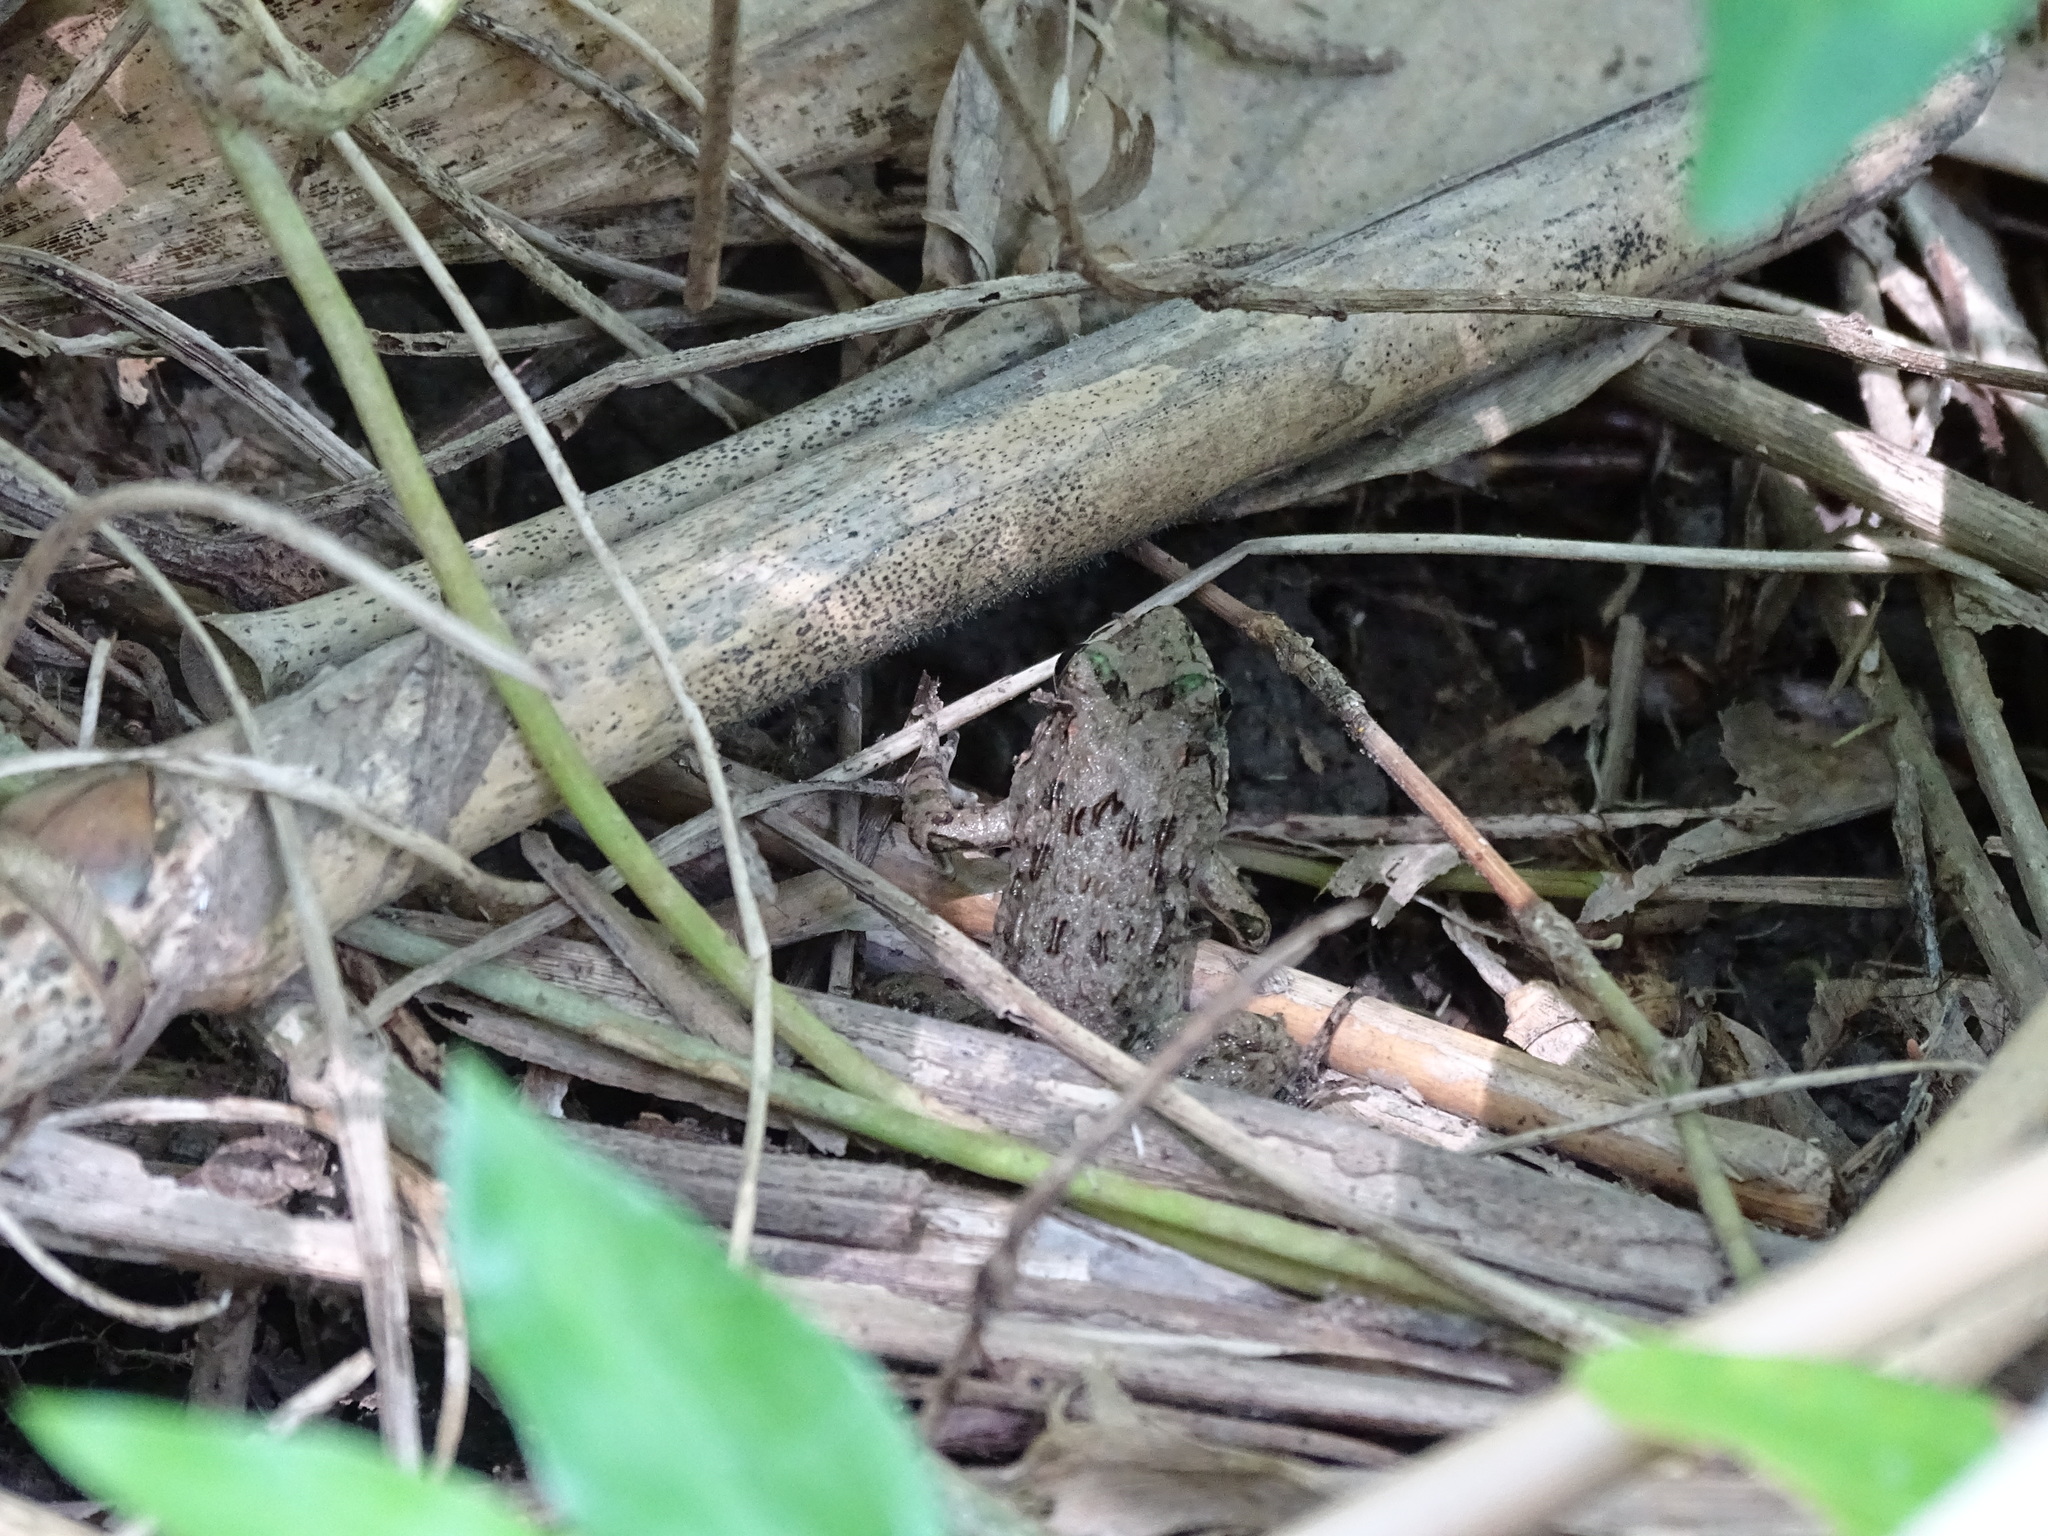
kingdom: Animalia
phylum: Chordata
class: Amphibia
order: Anura
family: Dicroglossidae
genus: Fejervarya
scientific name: Fejervarya limnocharis
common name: Asian grass frog/common pond frog/field frog/grass frog/indian rice frog
